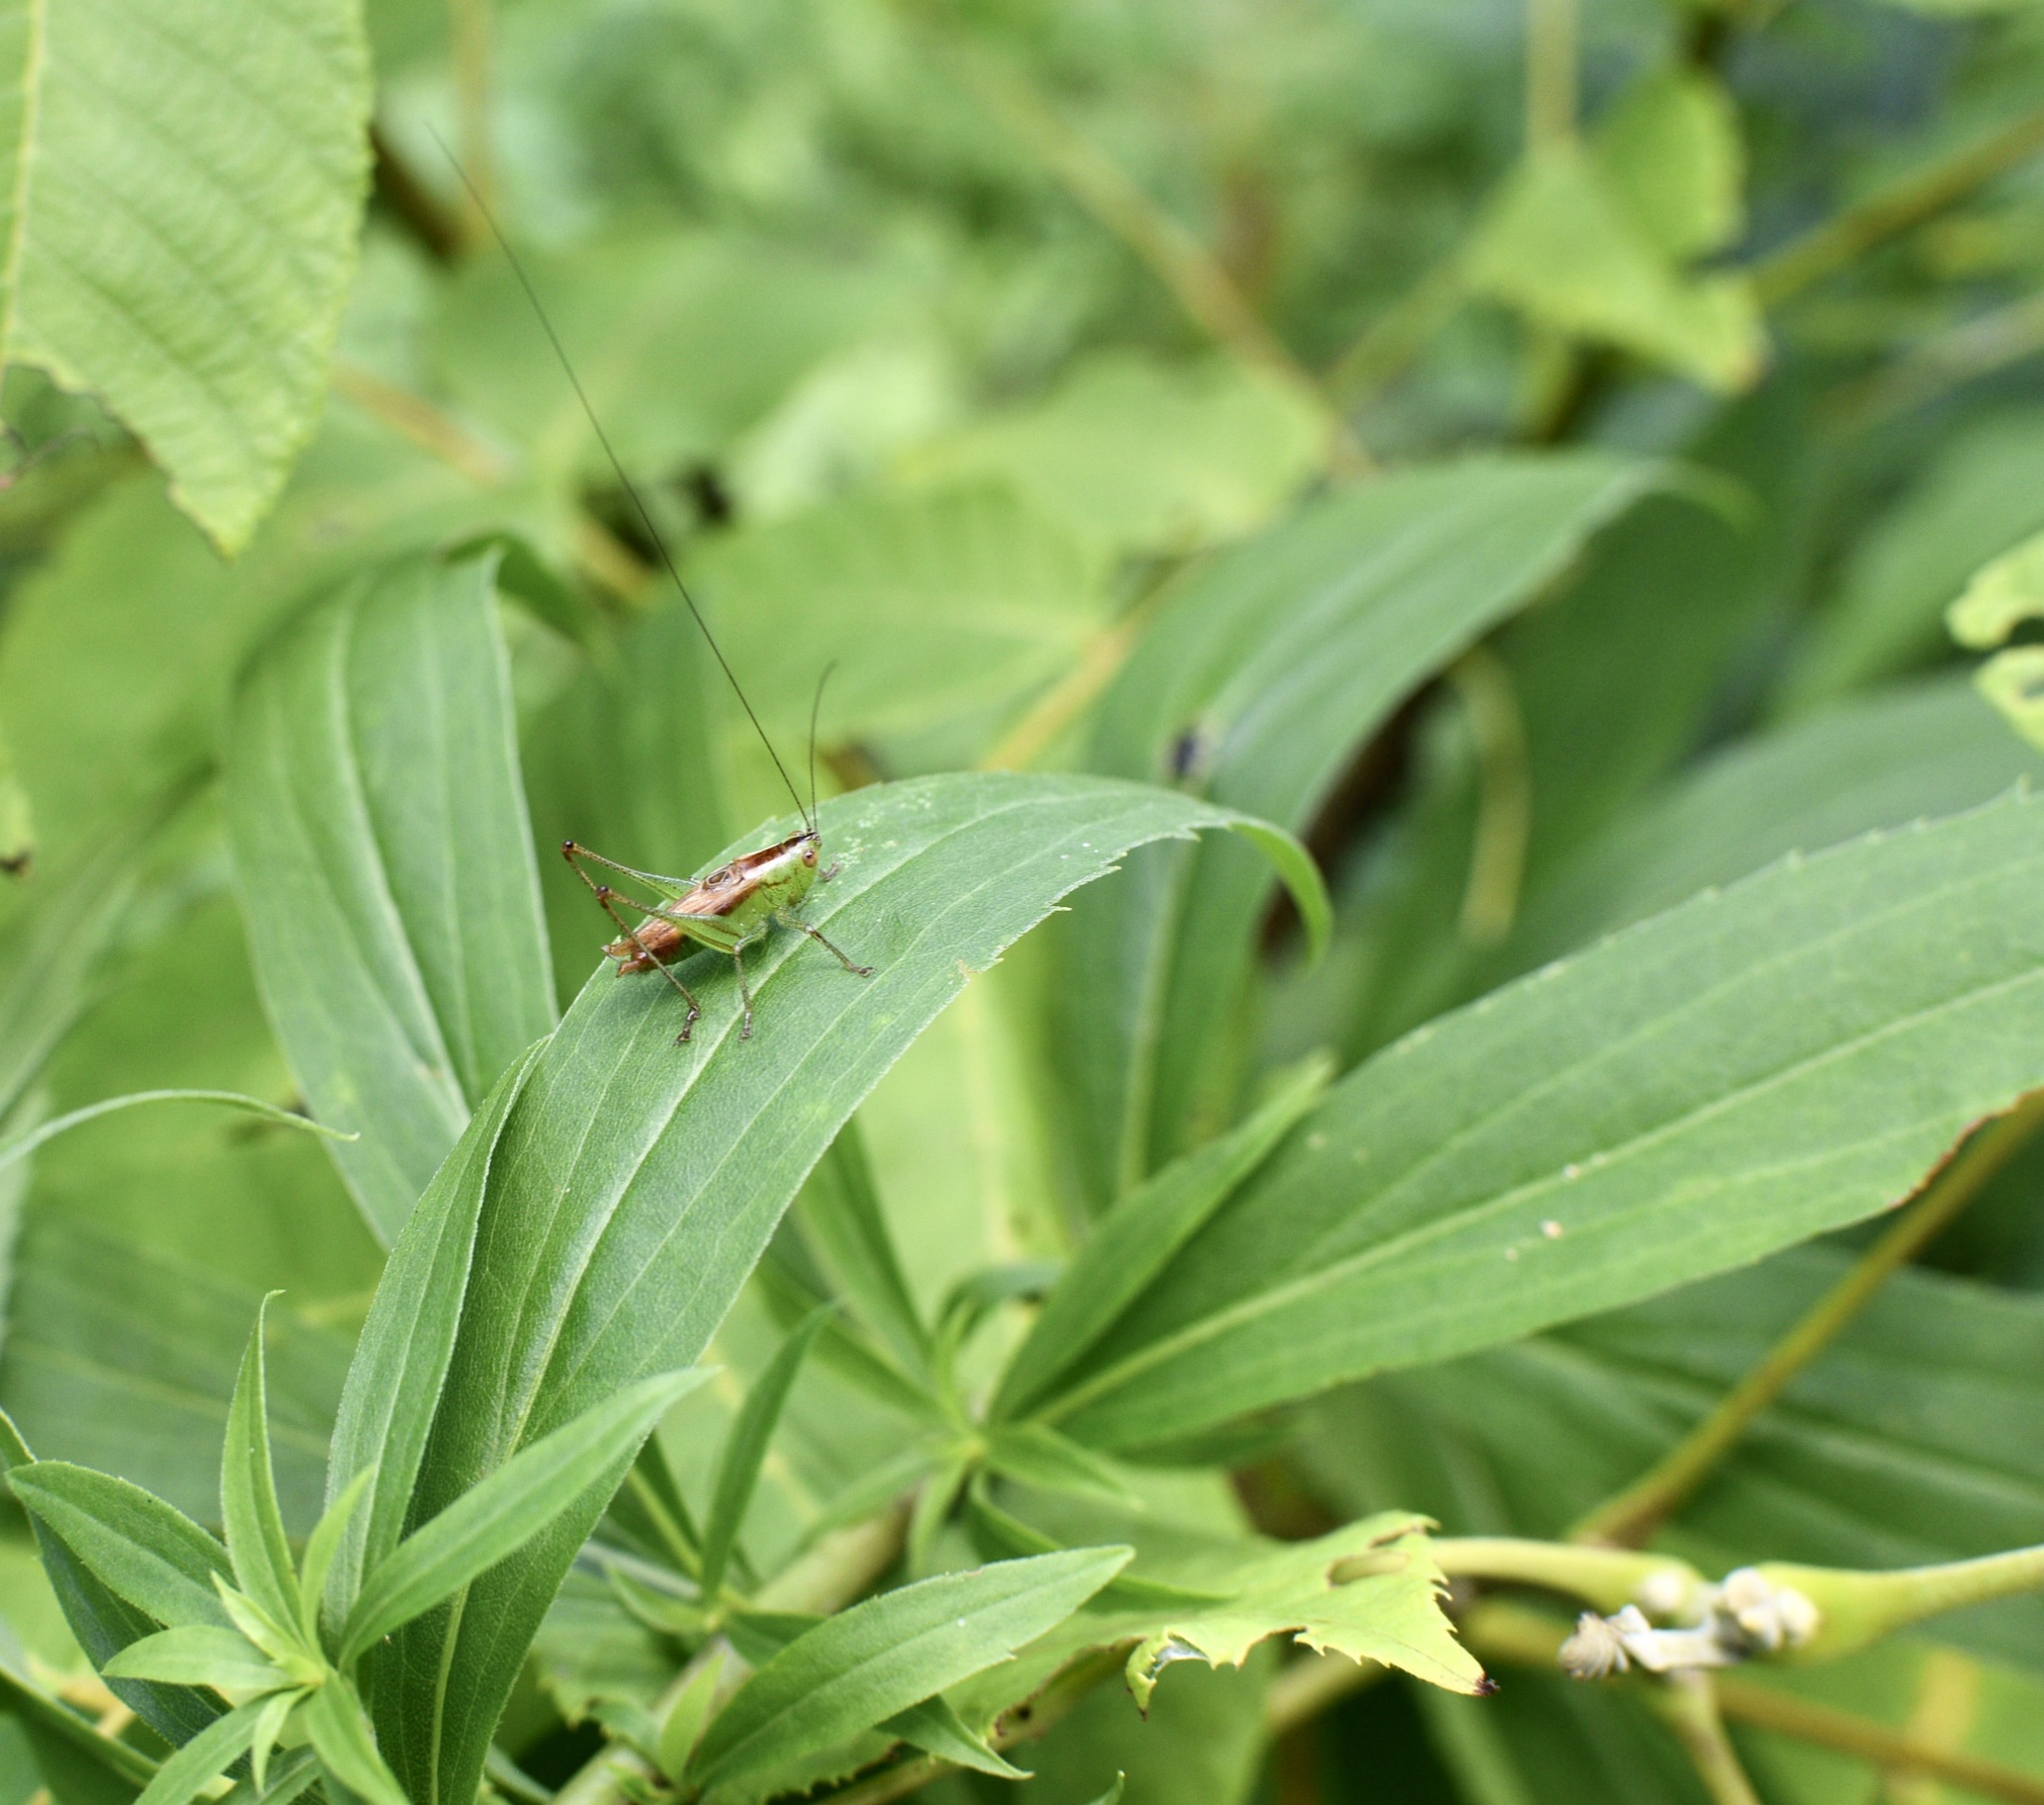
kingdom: Animalia
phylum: Arthropoda
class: Insecta
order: Orthoptera
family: Tettigoniidae
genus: Conocephalus
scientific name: Conocephalus brevipennis
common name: Short-winged meadow katydid
